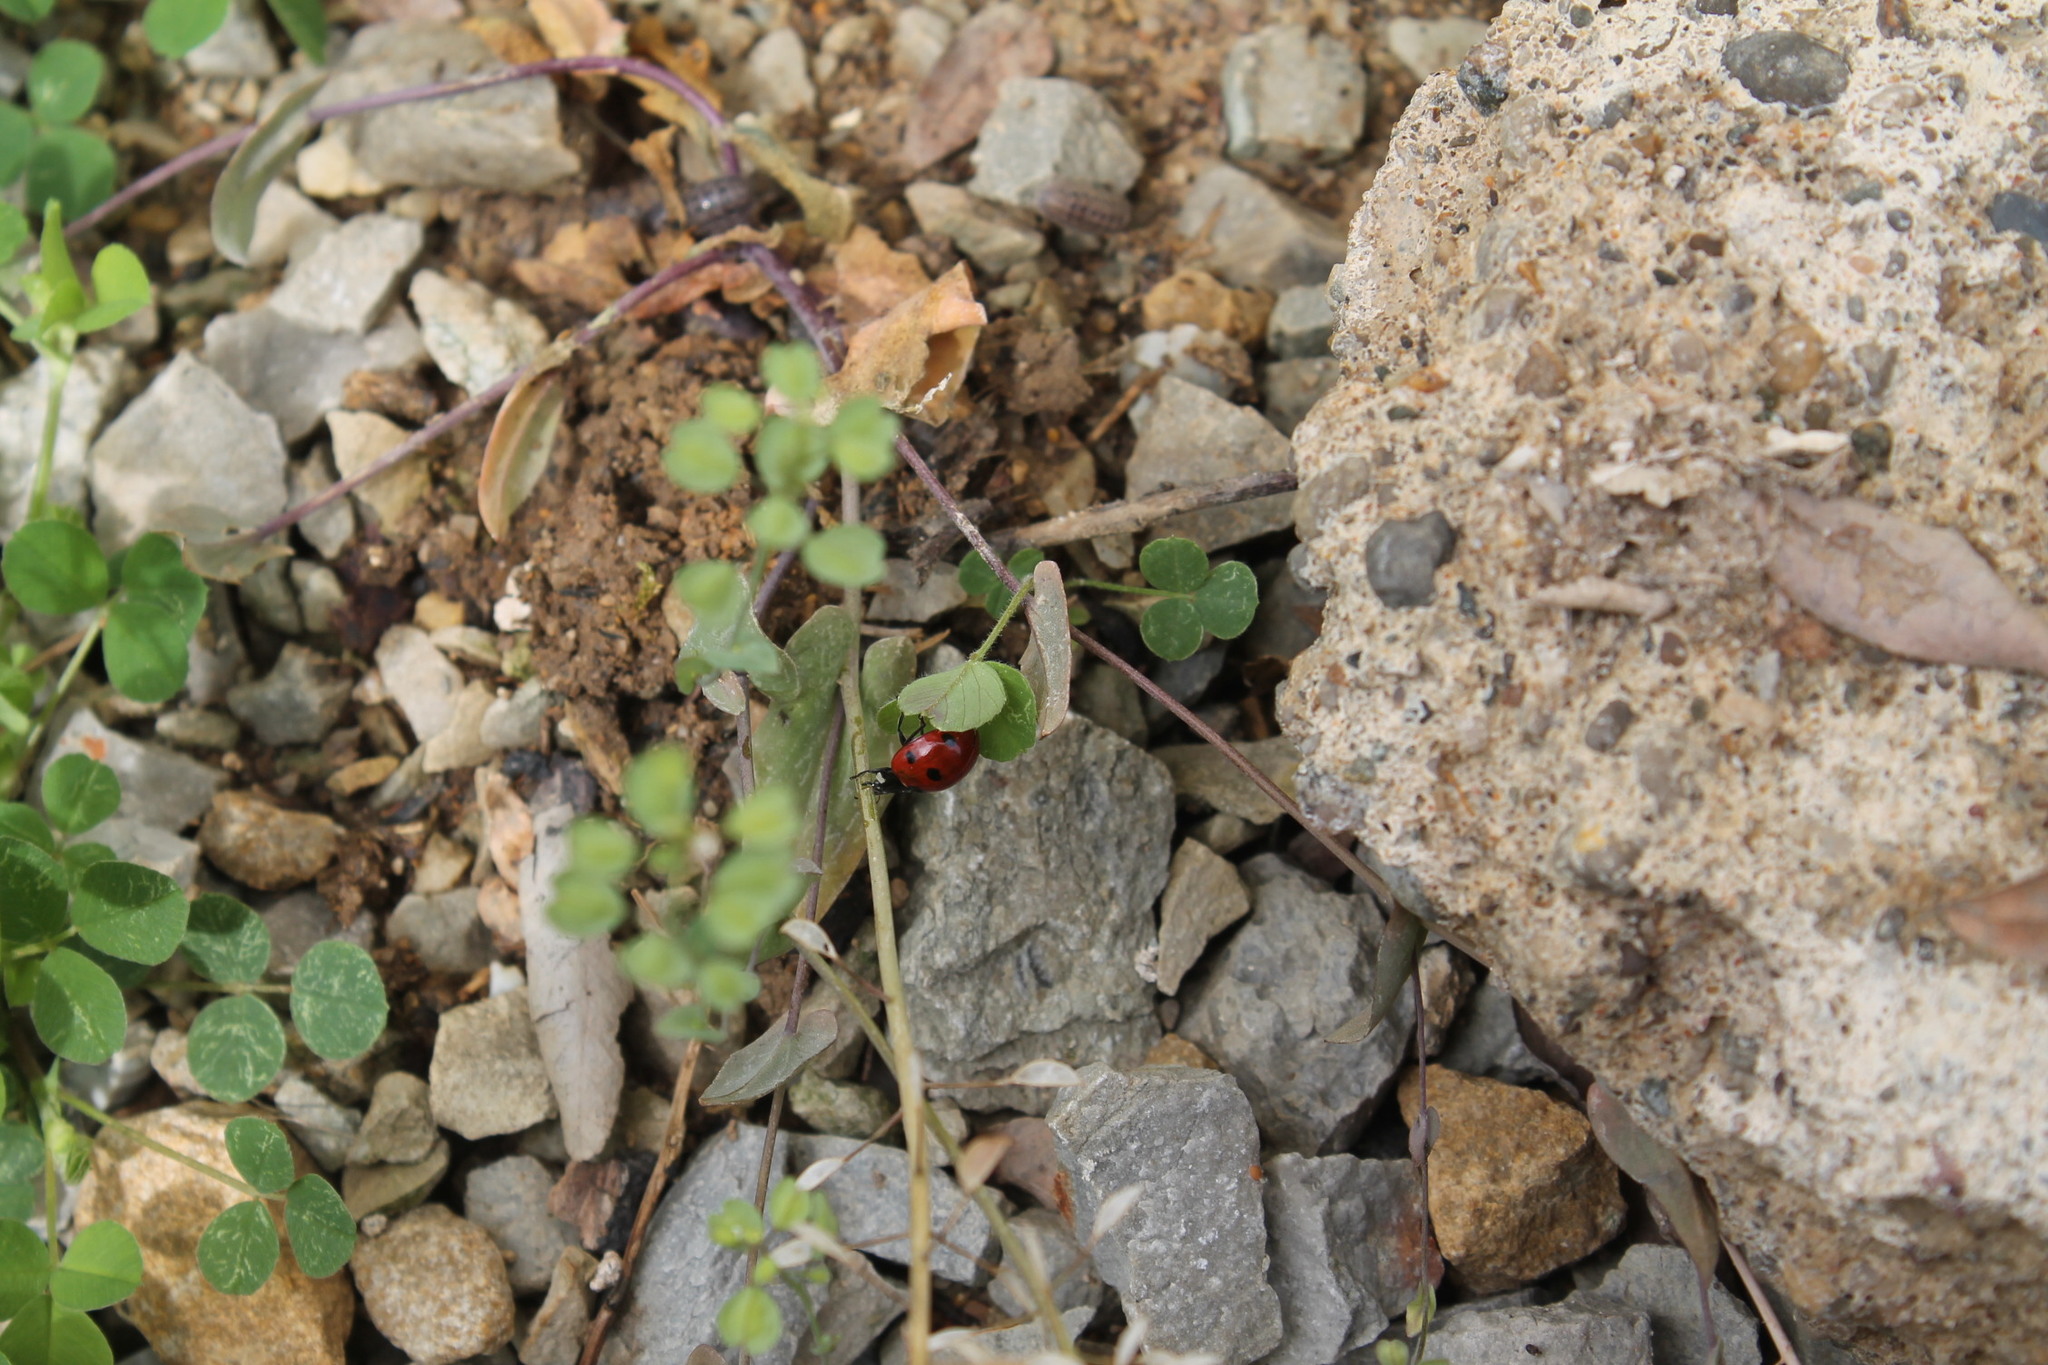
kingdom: Animalia
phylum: Arthropoda
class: Insecta
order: Coleoptera
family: Coccinellidae
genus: Coccinella
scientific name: Coccinella septempunctata
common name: Sevenspotted lady beetle
